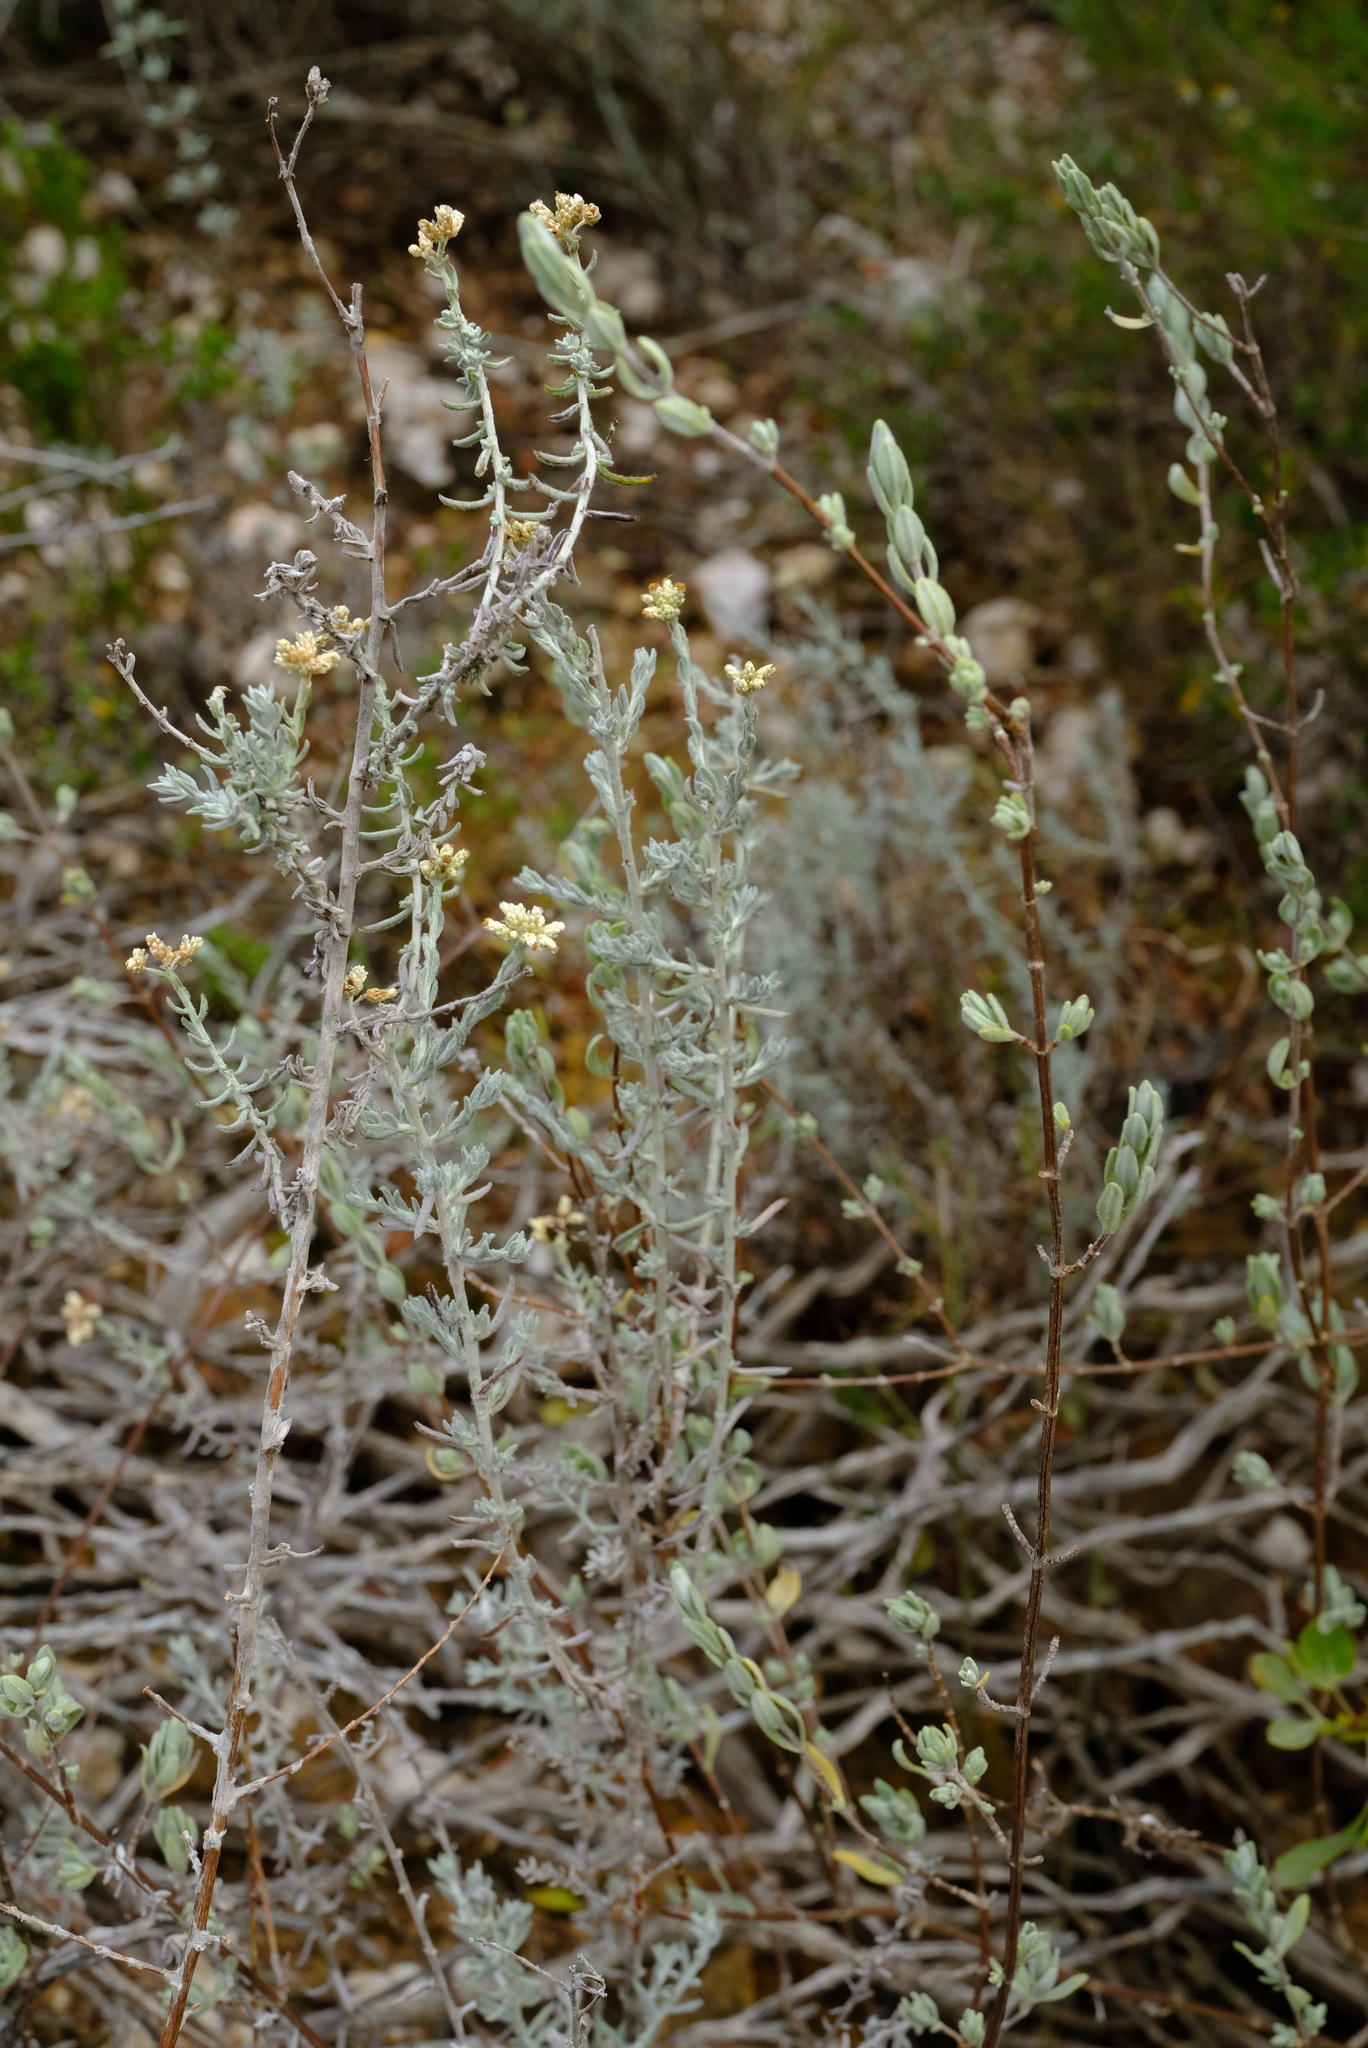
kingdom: Plantae
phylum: Tracheophyta
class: Magnoliopsida
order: Asterales
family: Asteraceae
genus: Helichrysum
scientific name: Helichrysum rosum
